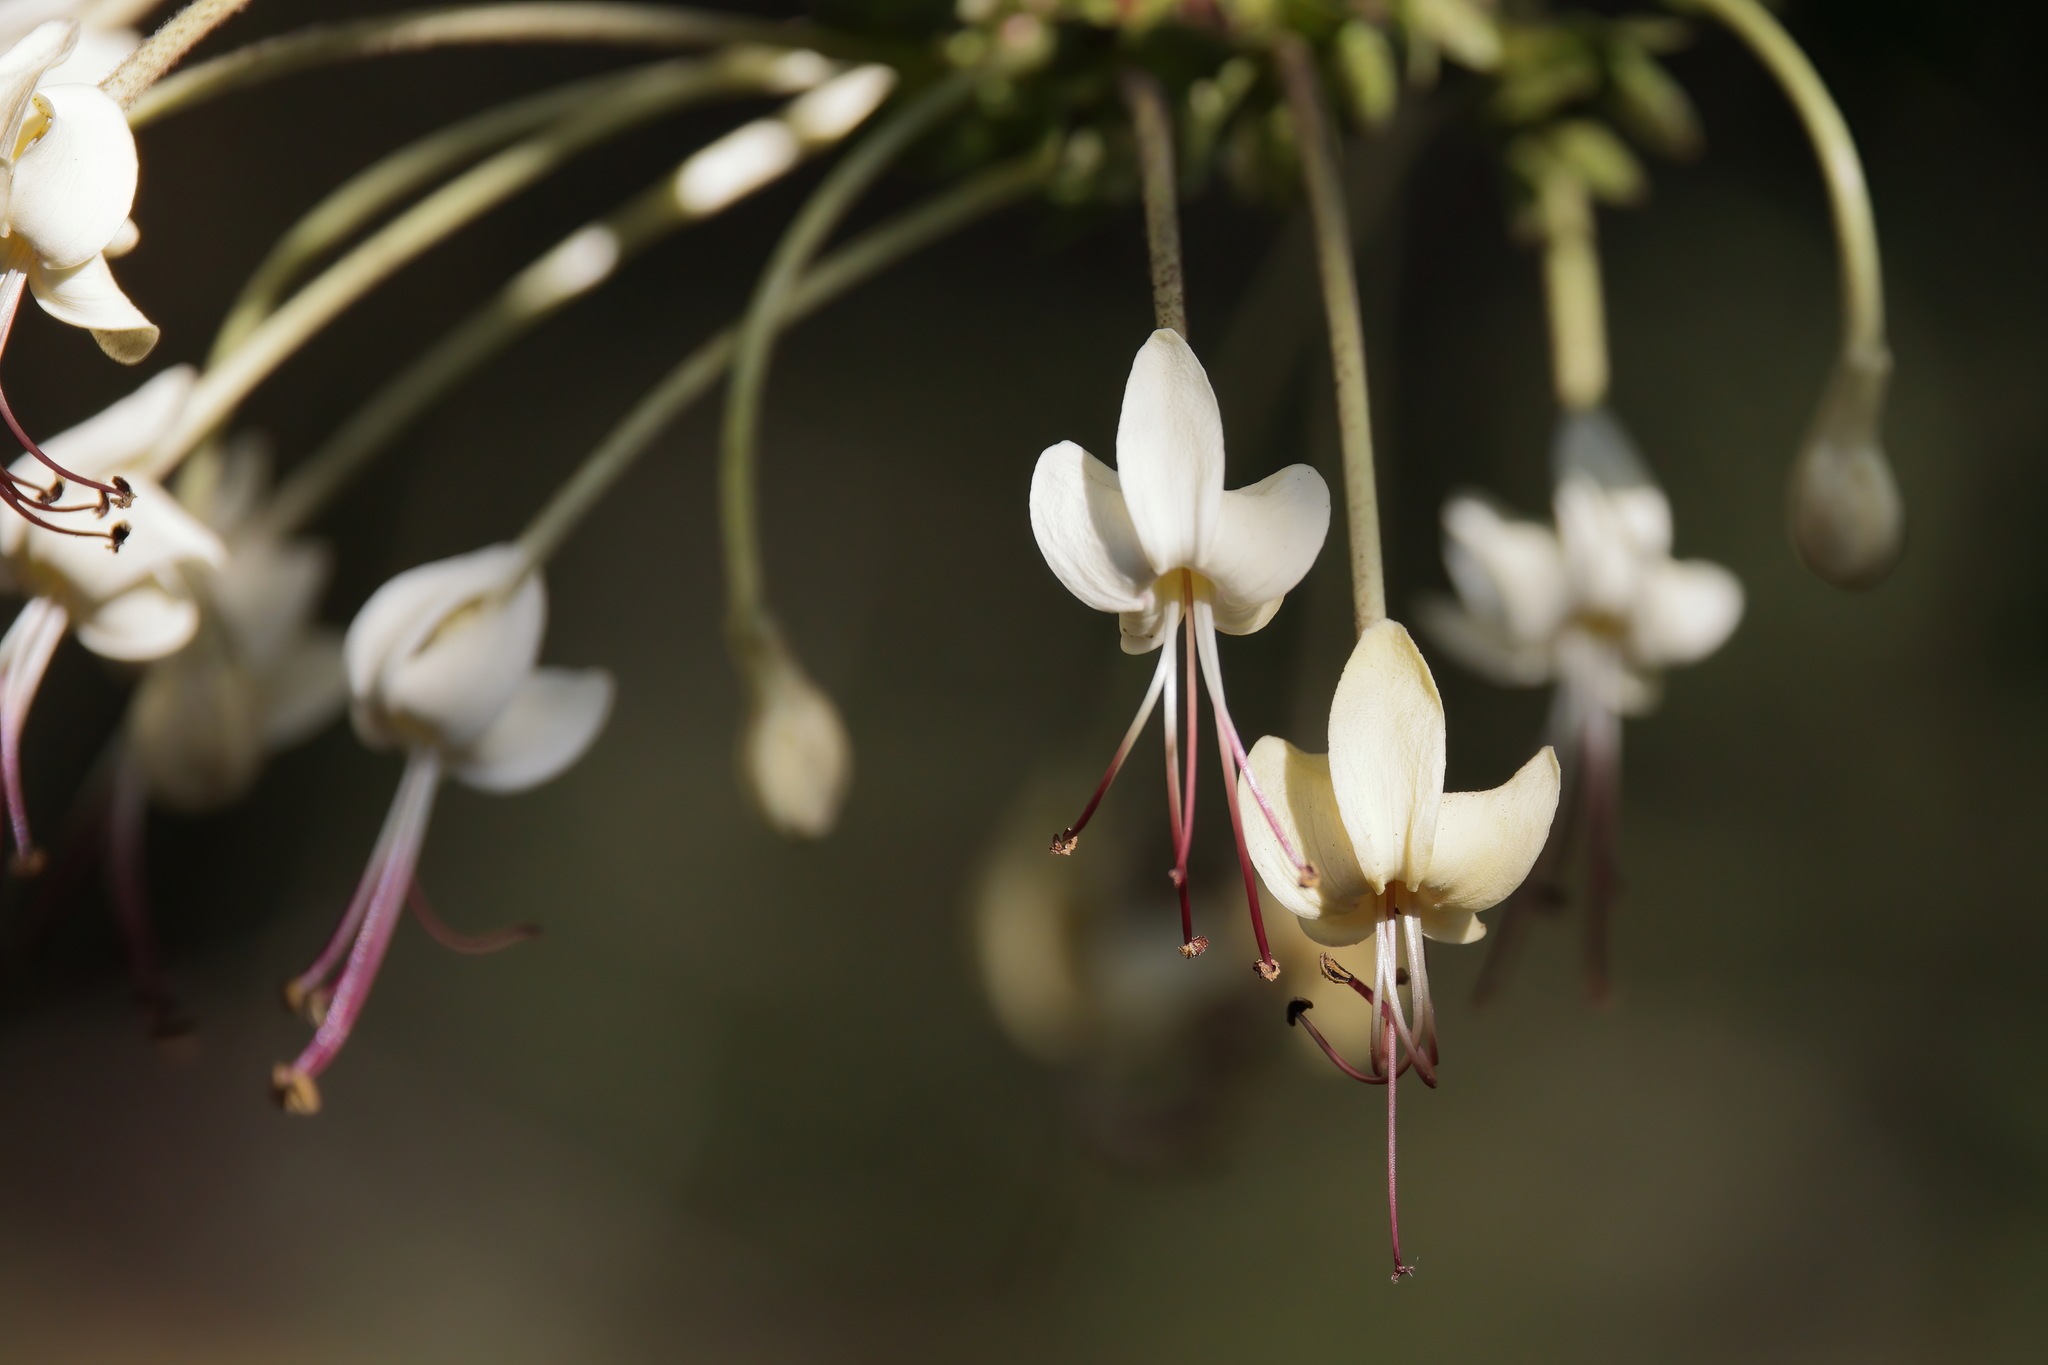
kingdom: Plantae
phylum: Tracheophyta
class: Magnoliopsida
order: Lamiales
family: Lamiaceae
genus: Clerodendrum
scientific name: Clerodendrum indicum
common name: Turk's turbin
